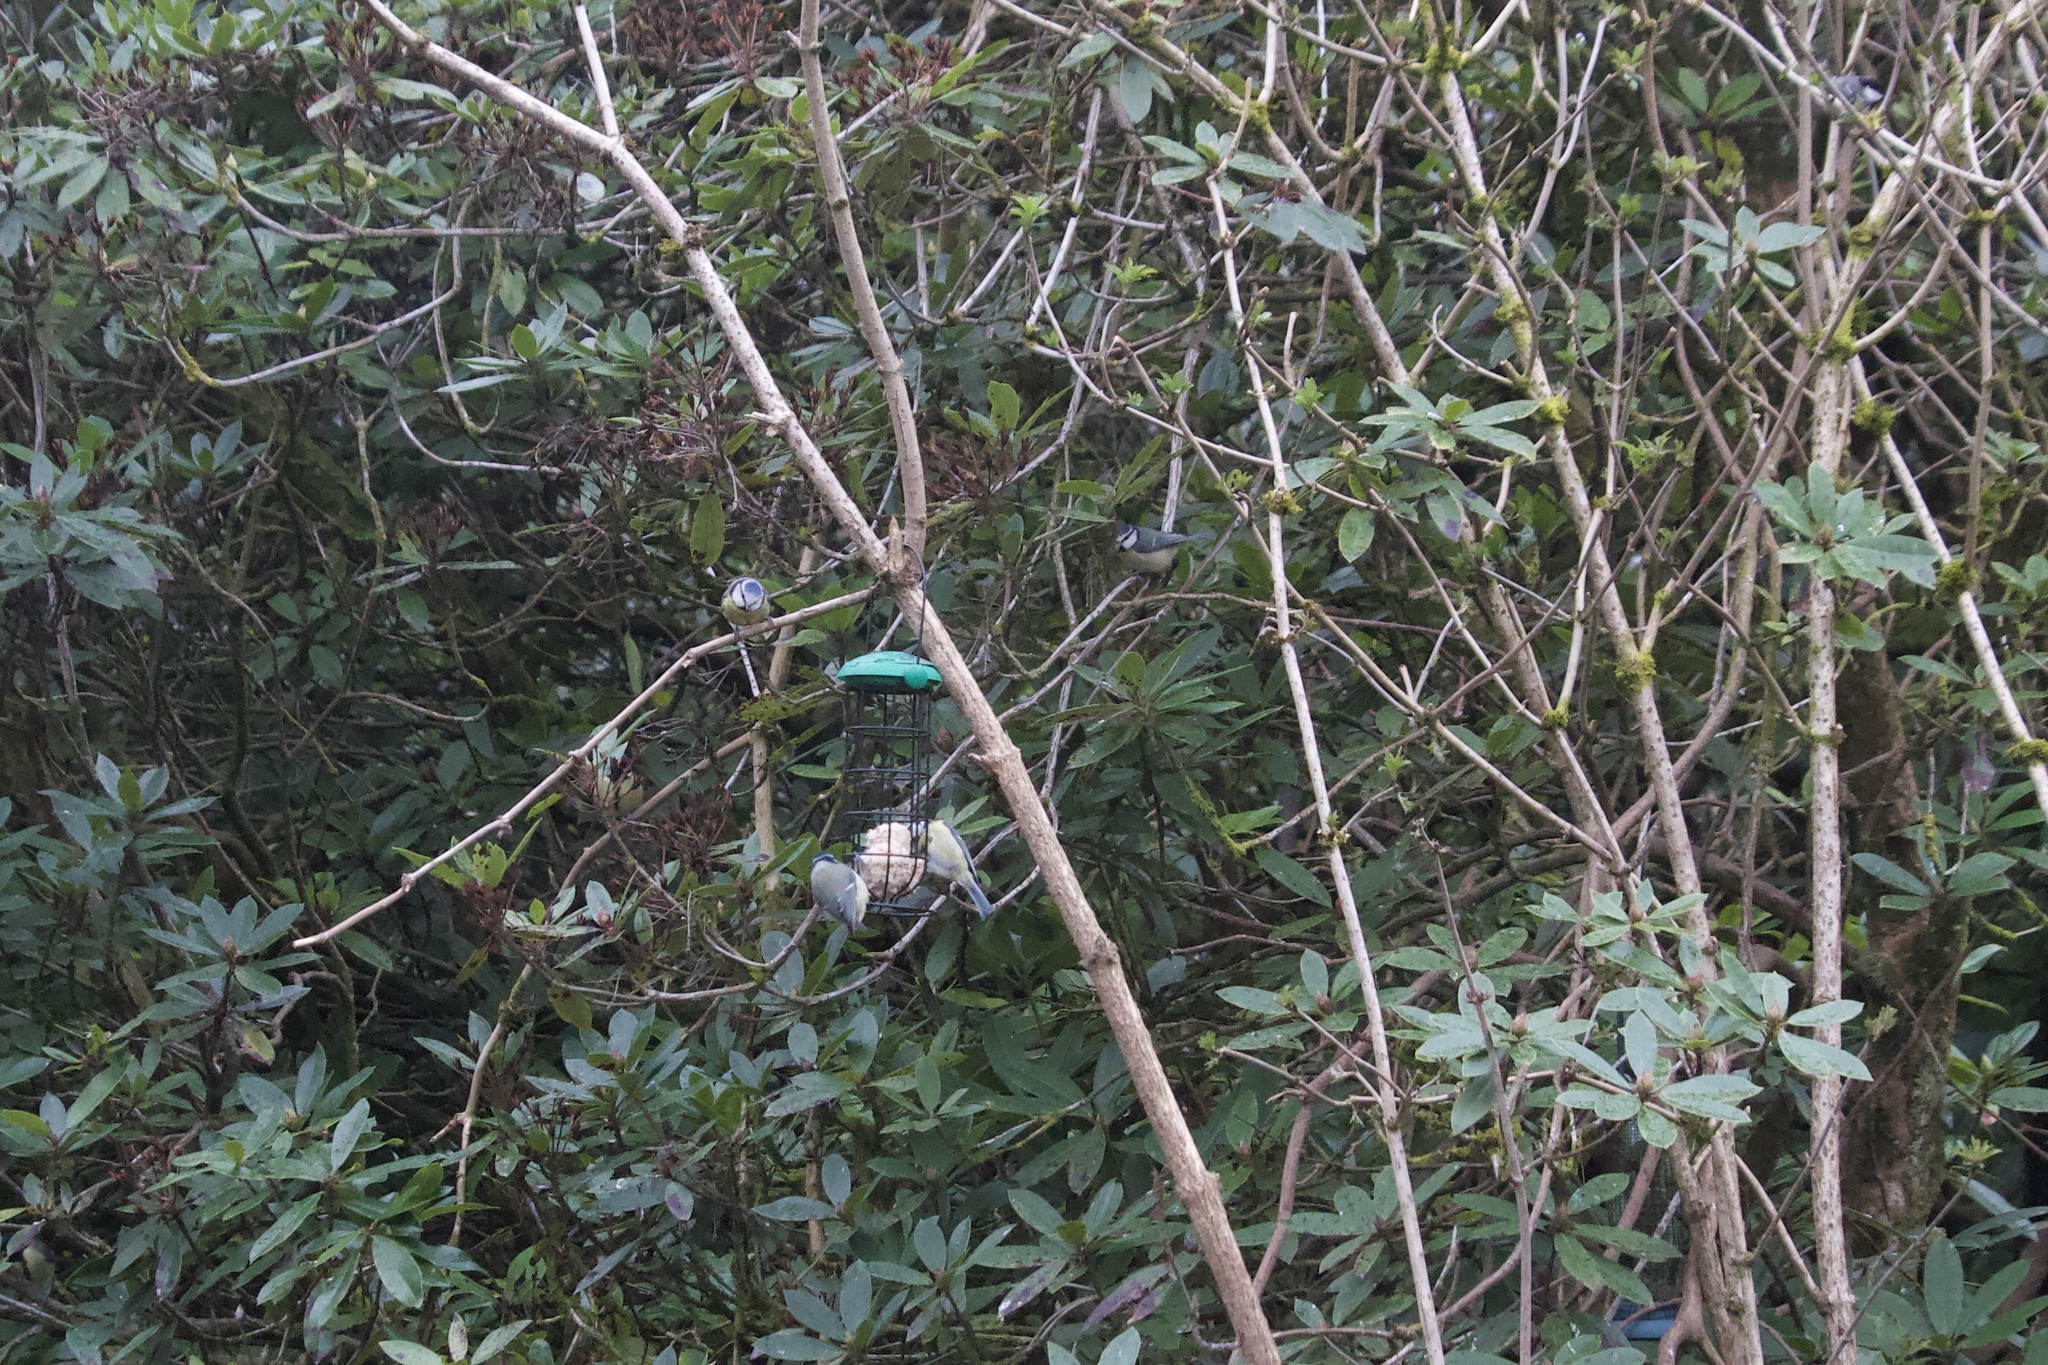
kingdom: Animalia
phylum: Chordata
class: Aves
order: Passeriformes
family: Paridae
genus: Cyanistes
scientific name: Cyanistes caeruleus
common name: Eurasian blue tit
